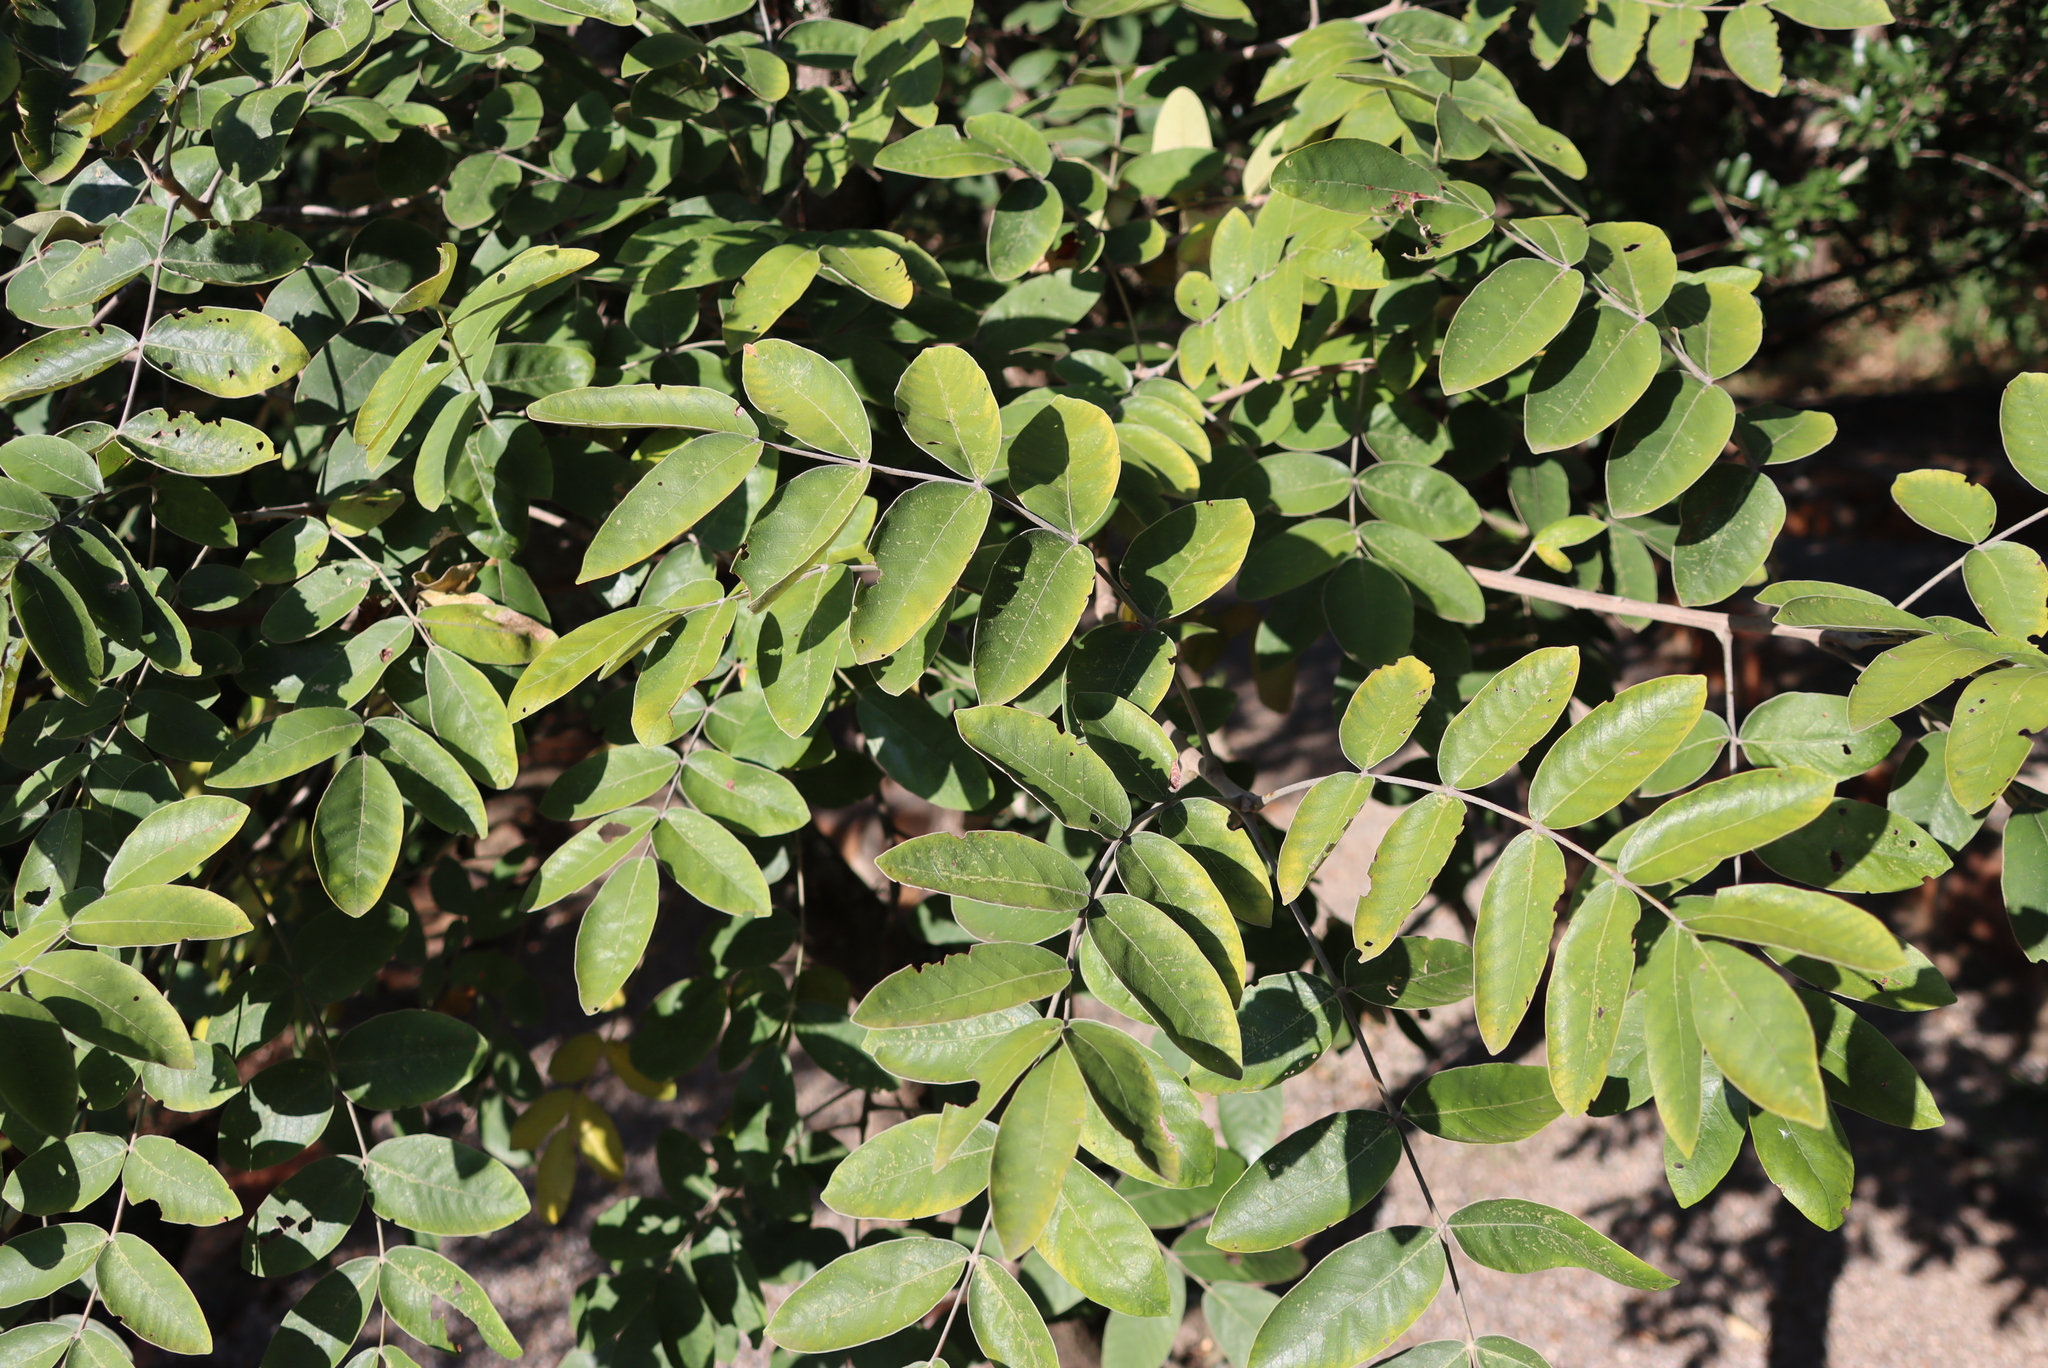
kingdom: Plantae
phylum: Tracheophyta
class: Magnoliopsida
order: Sapindales
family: Anacardiaceae
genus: Lannea
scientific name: Lannea discolor
